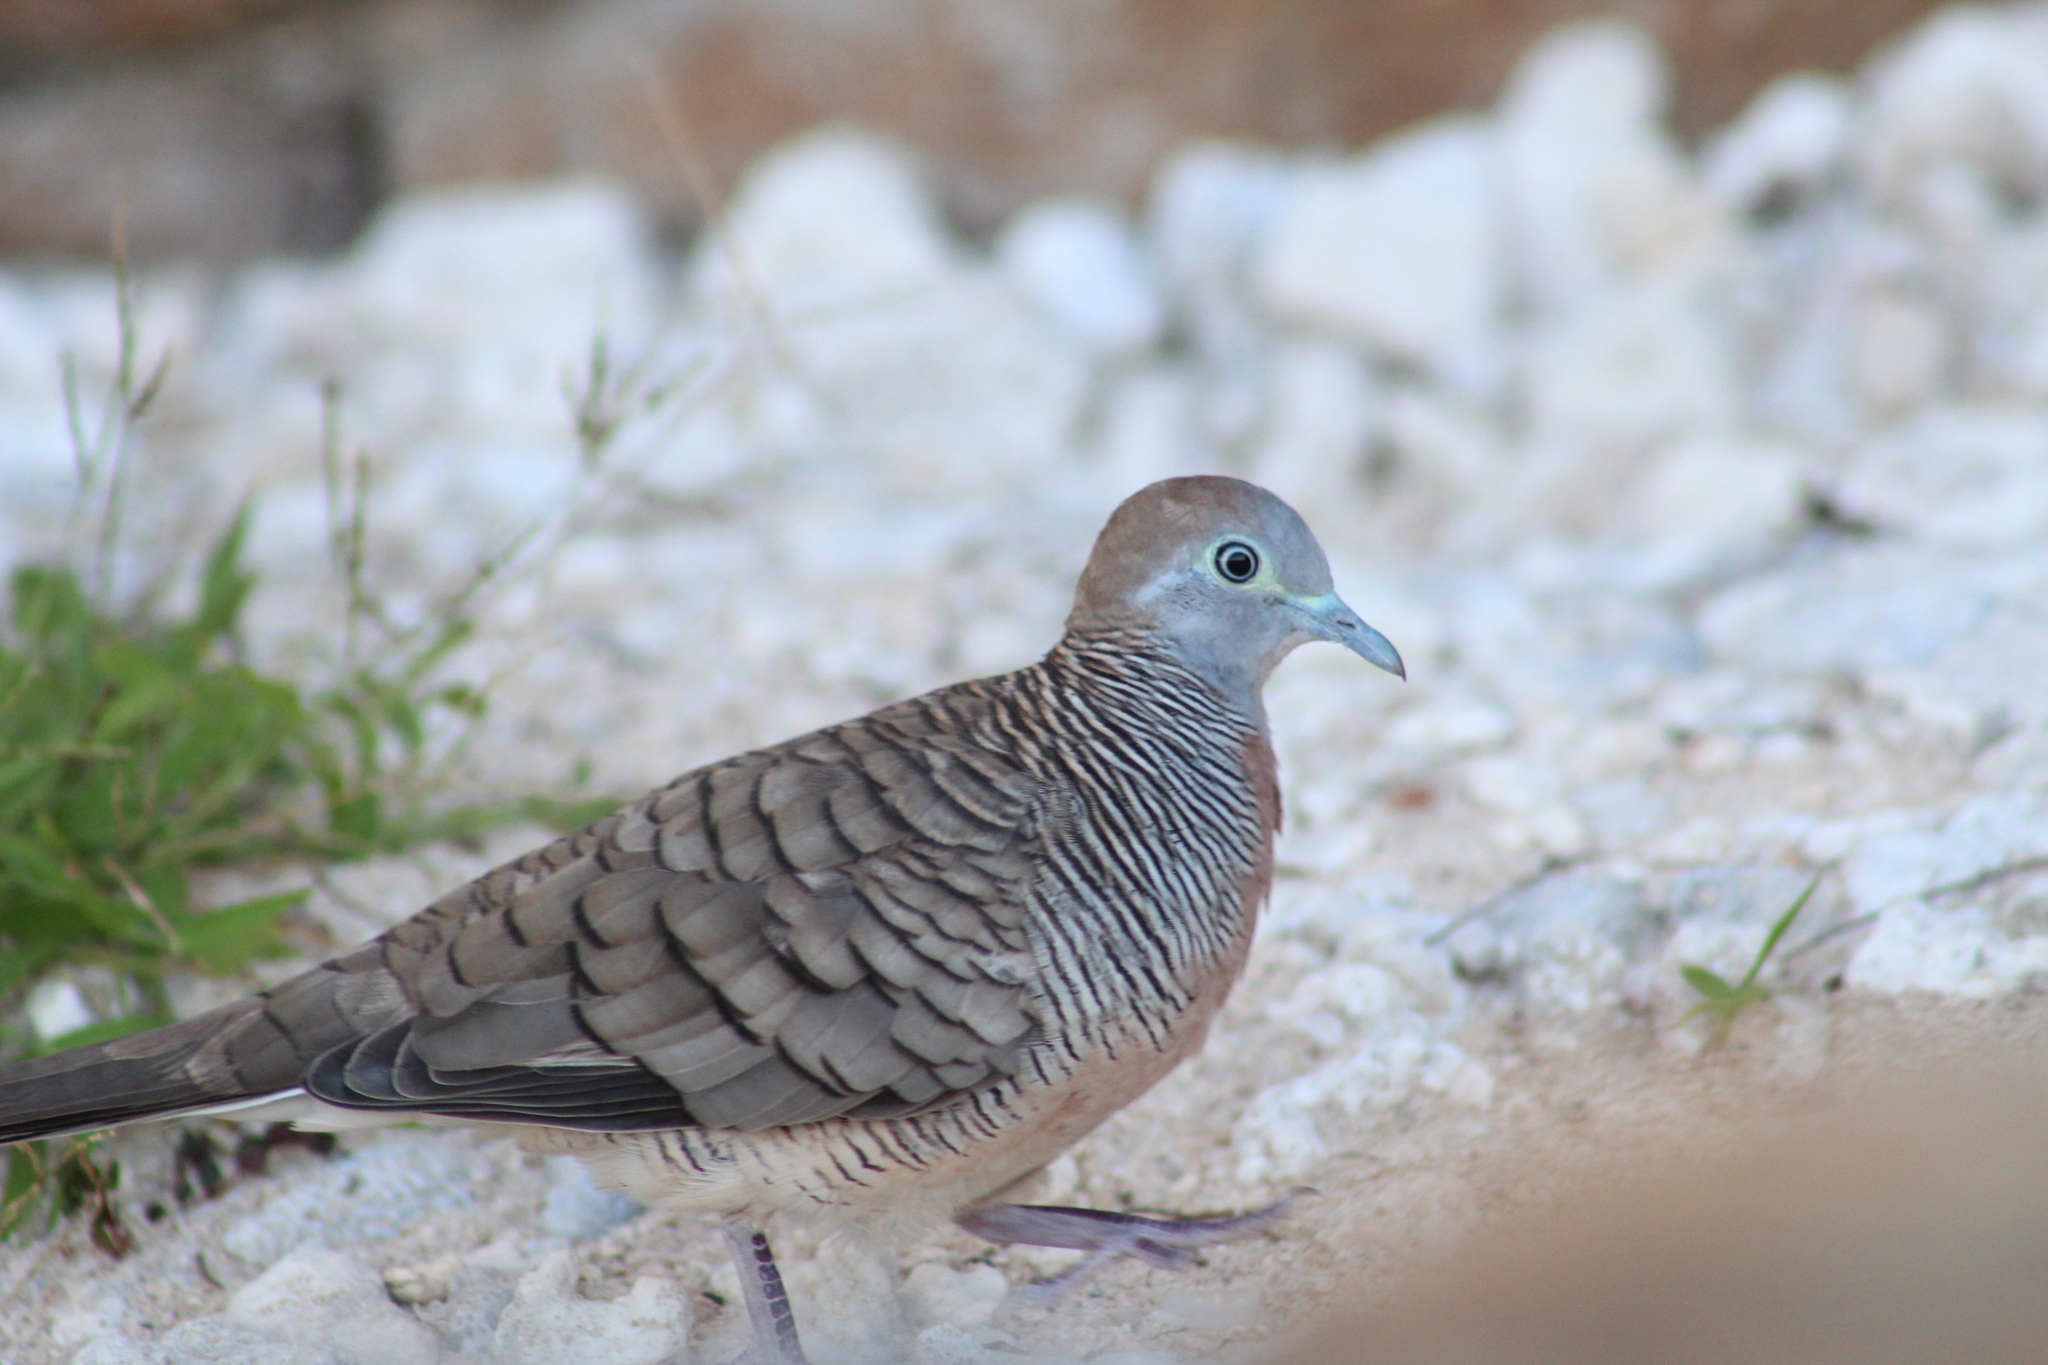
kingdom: Animalia
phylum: Chordata
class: Aves
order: Columbiformes
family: Columbidae
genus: Geopelia
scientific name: Geopelia striata
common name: Zebra dove
